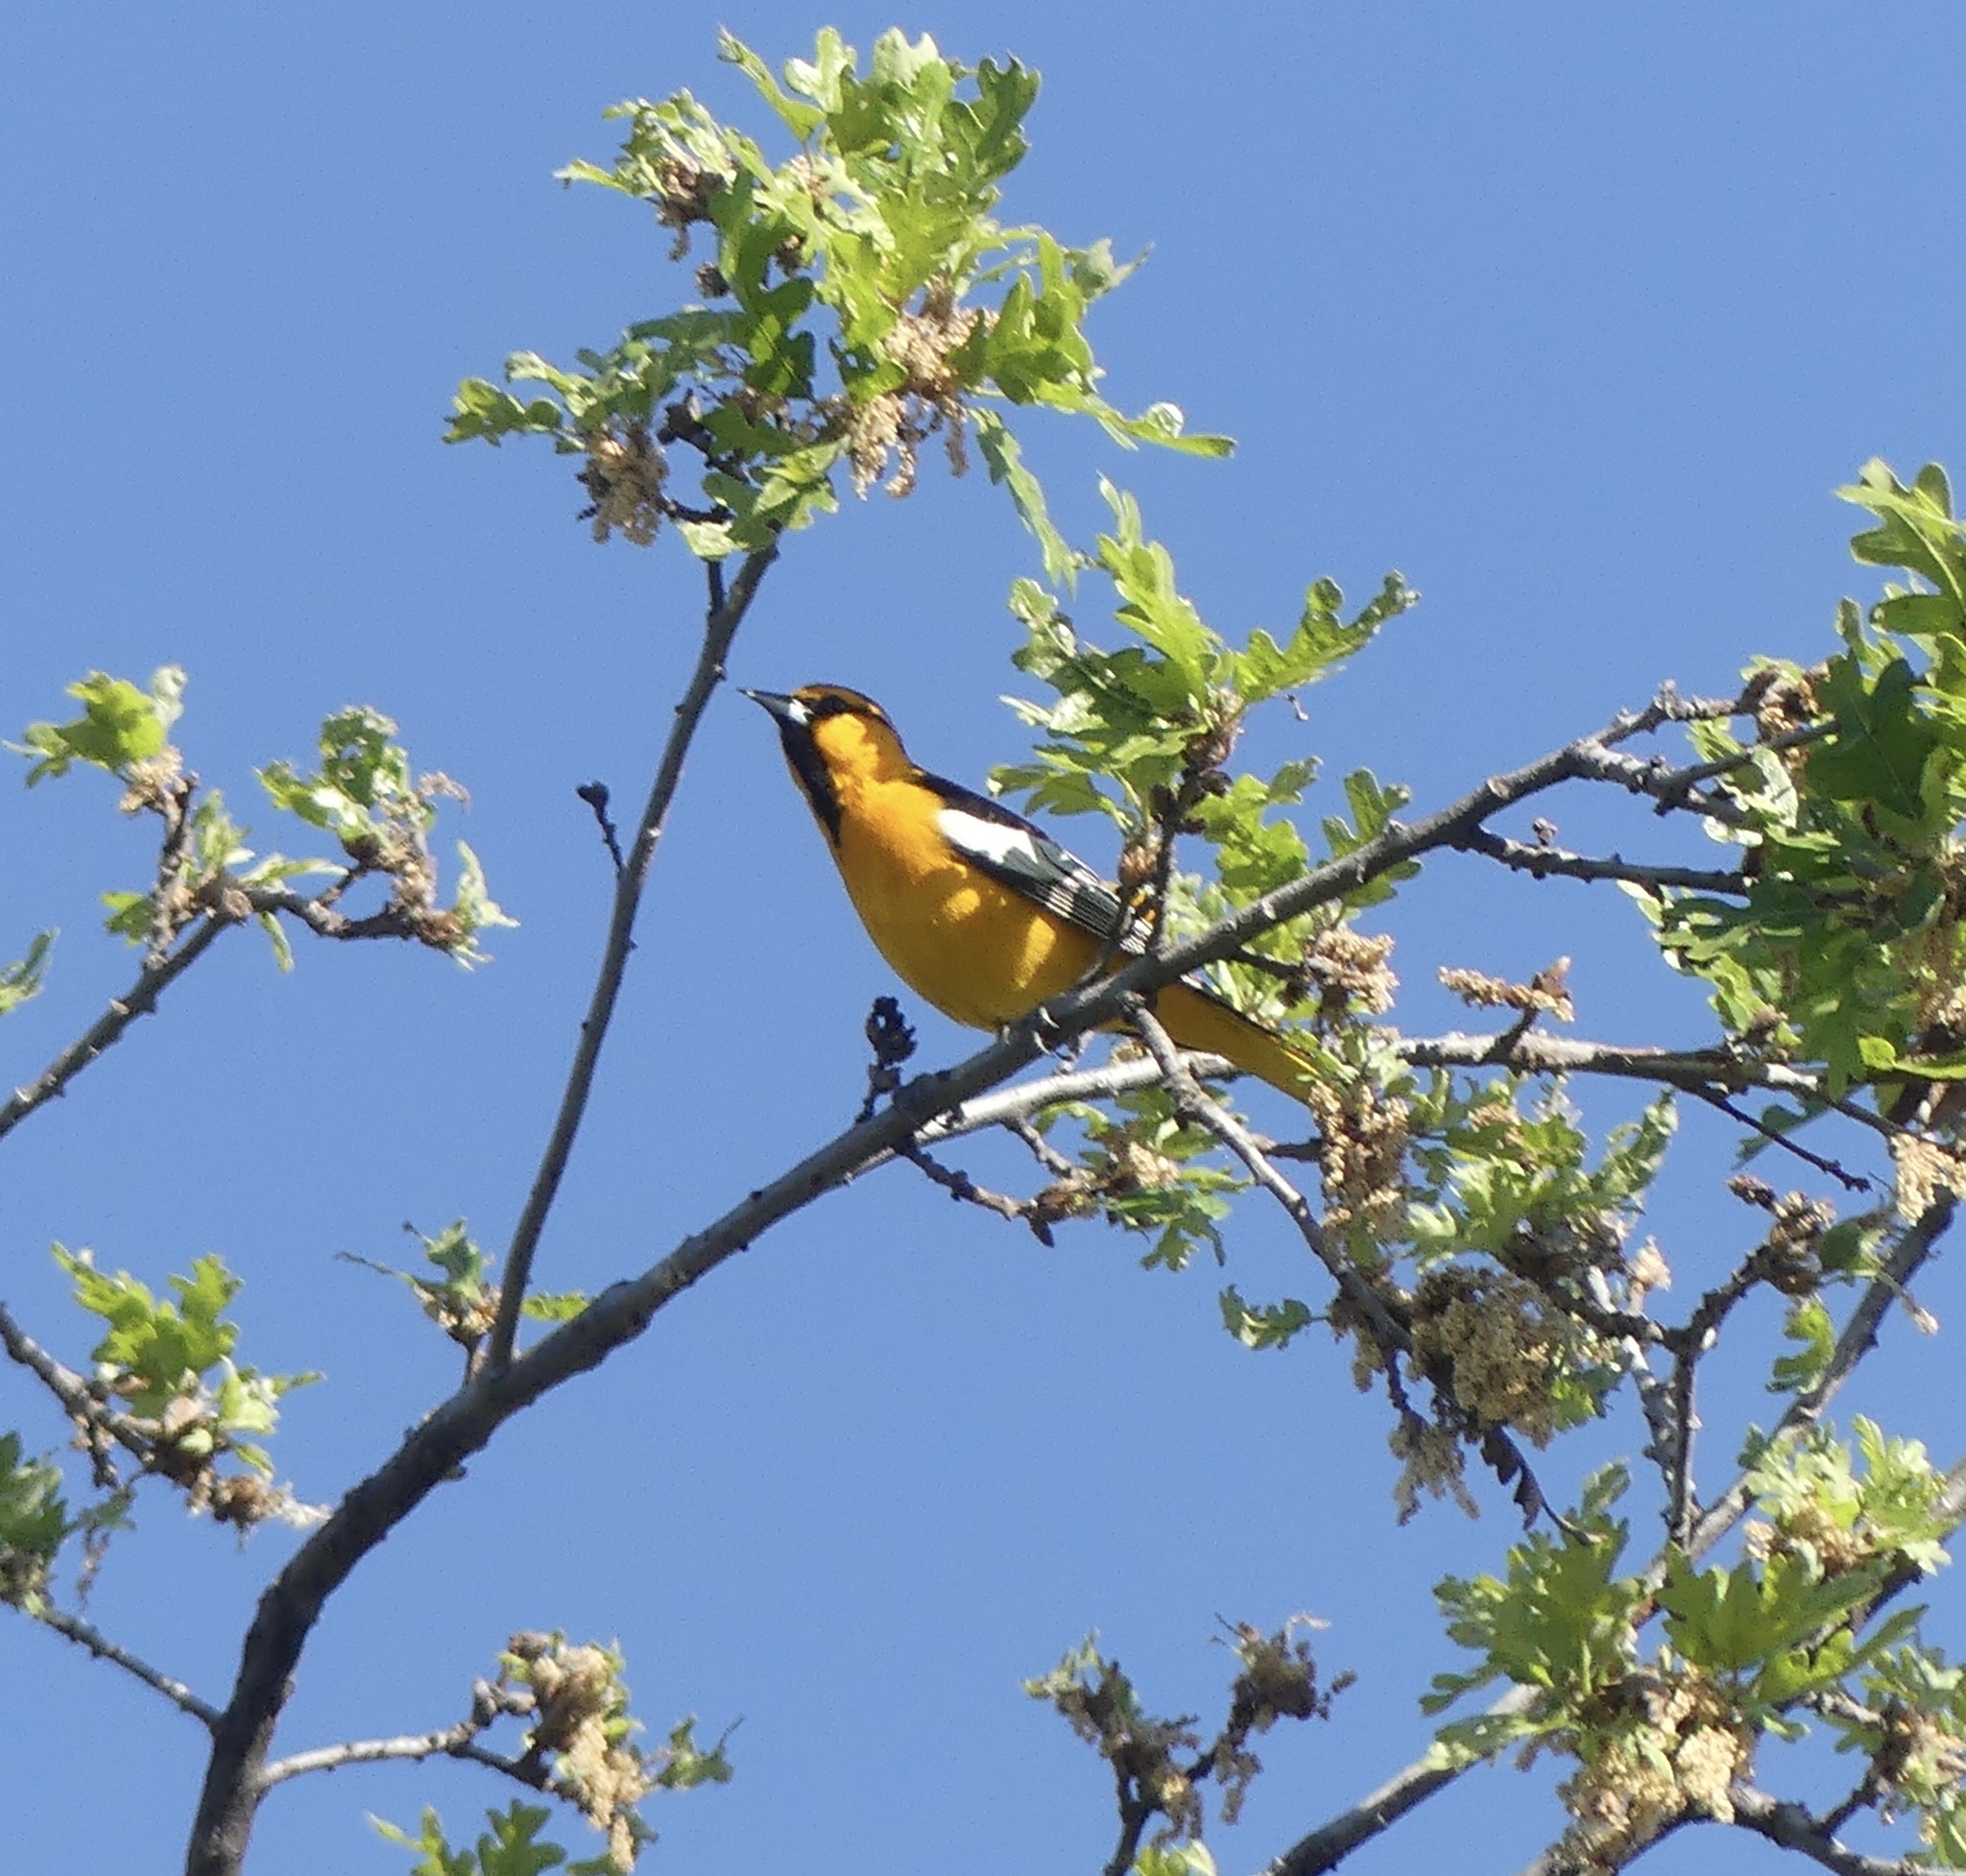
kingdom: Animalia
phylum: Chordata
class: Aves
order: Passeriformes
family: Icteridae
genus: Icterus
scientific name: Icterus bullockii
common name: Bullock's oriole
